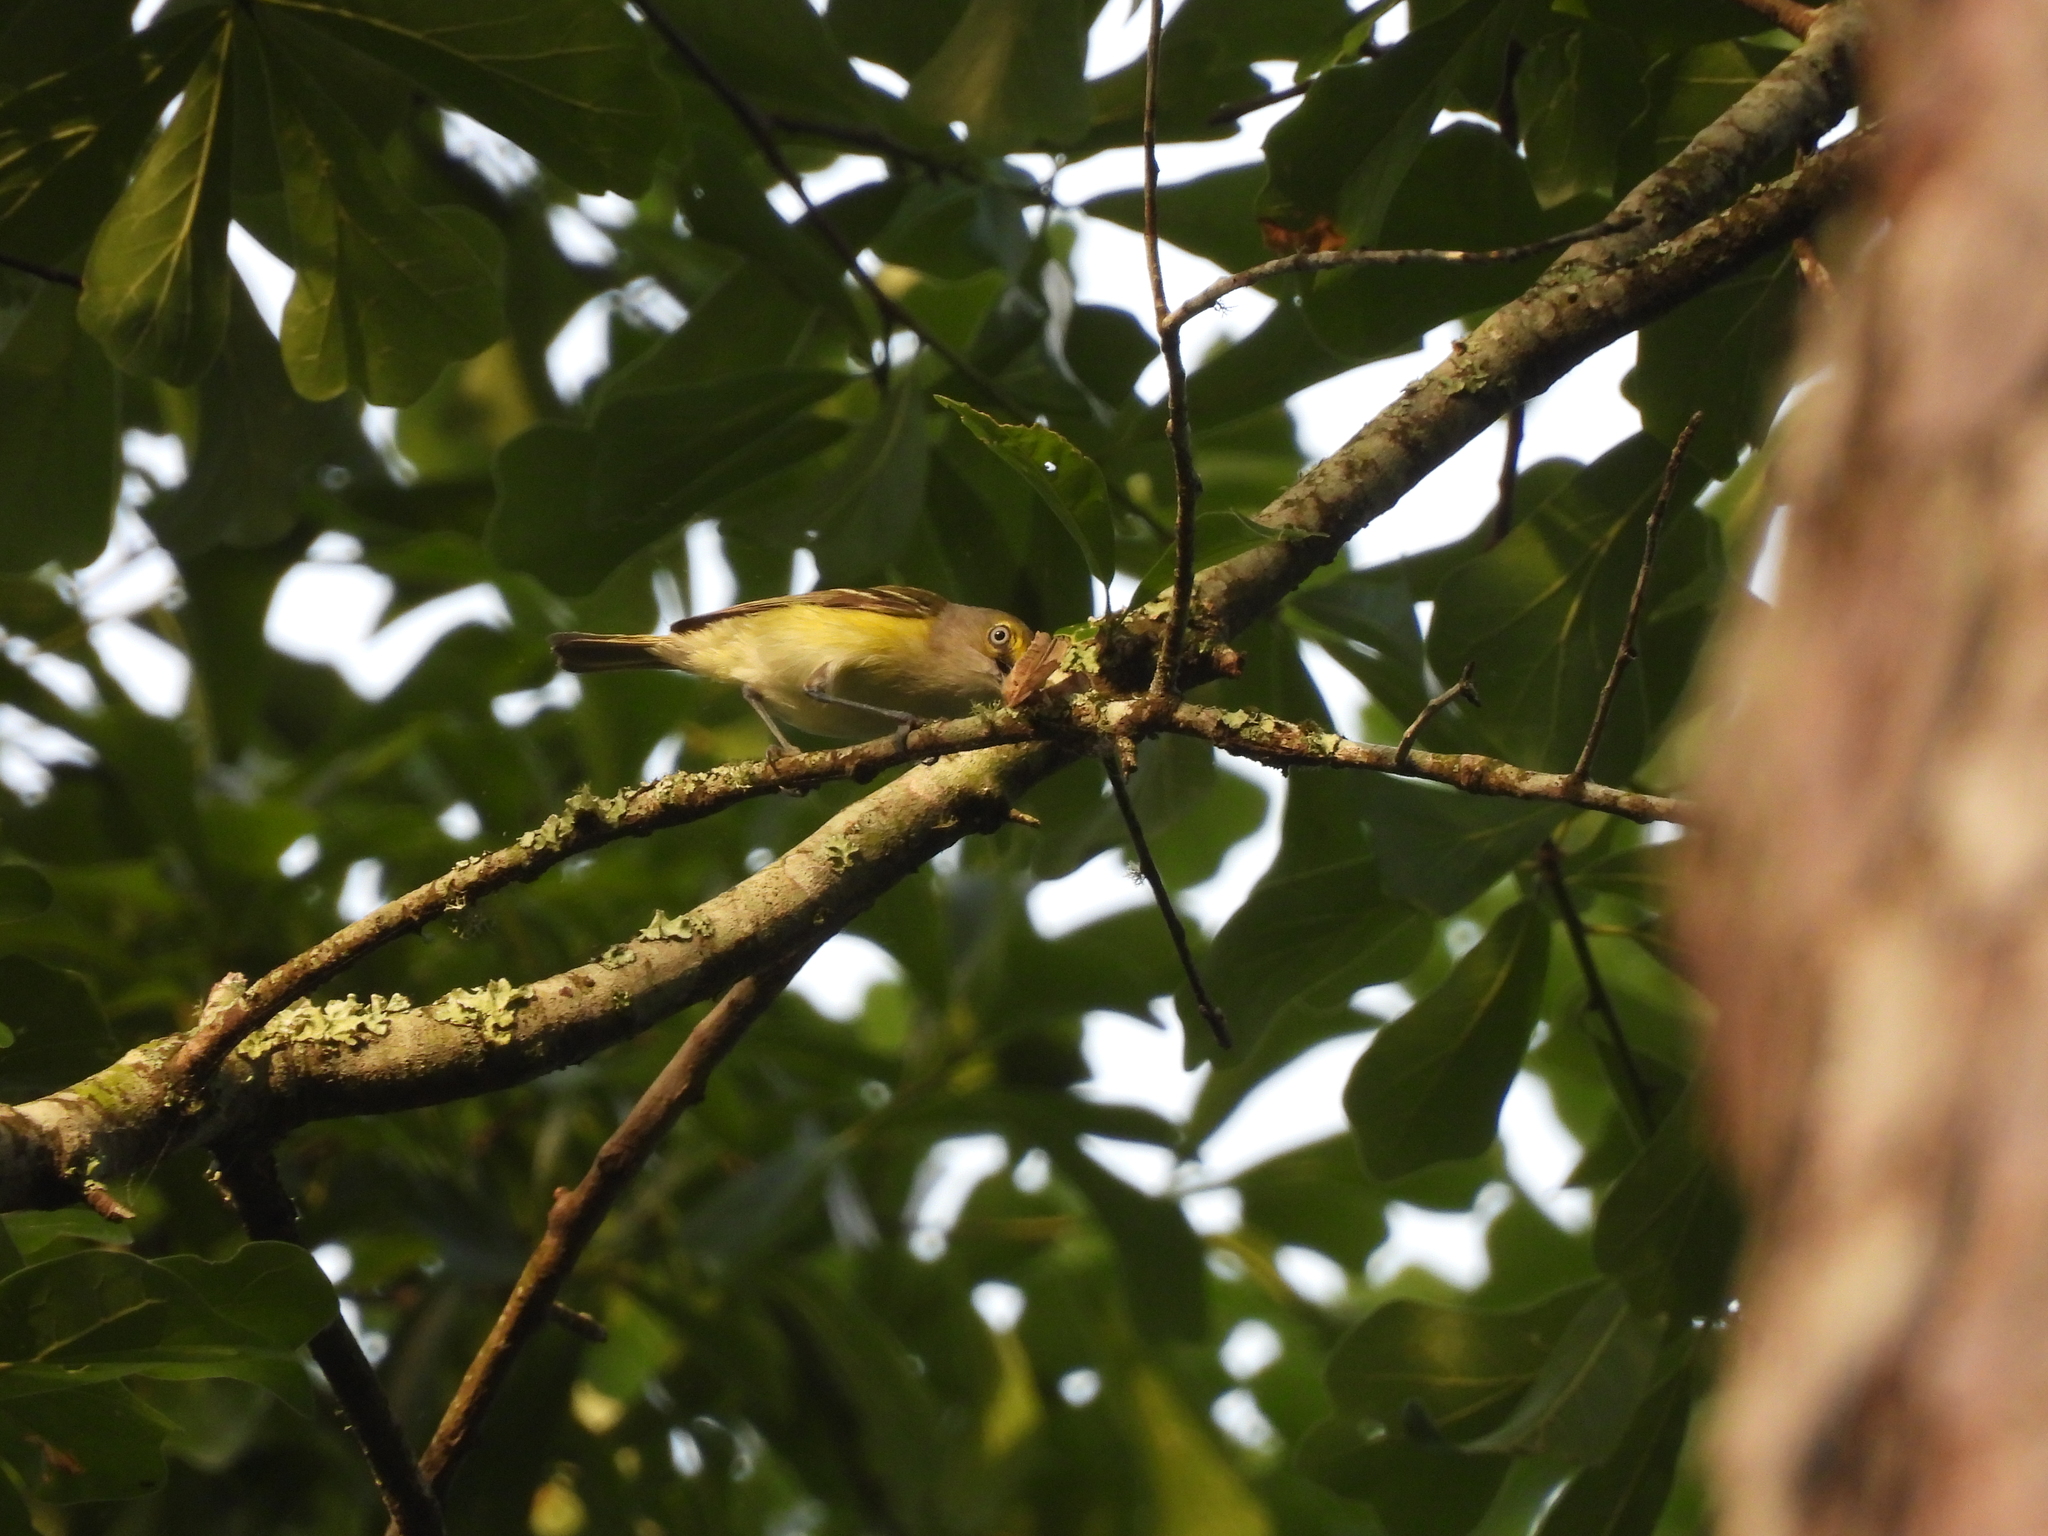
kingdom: Animalia
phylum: Chordata
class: Aves
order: Passeriformes
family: Vireonidae
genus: Vireo
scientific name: Vireo griseus
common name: White-eyed vireo
